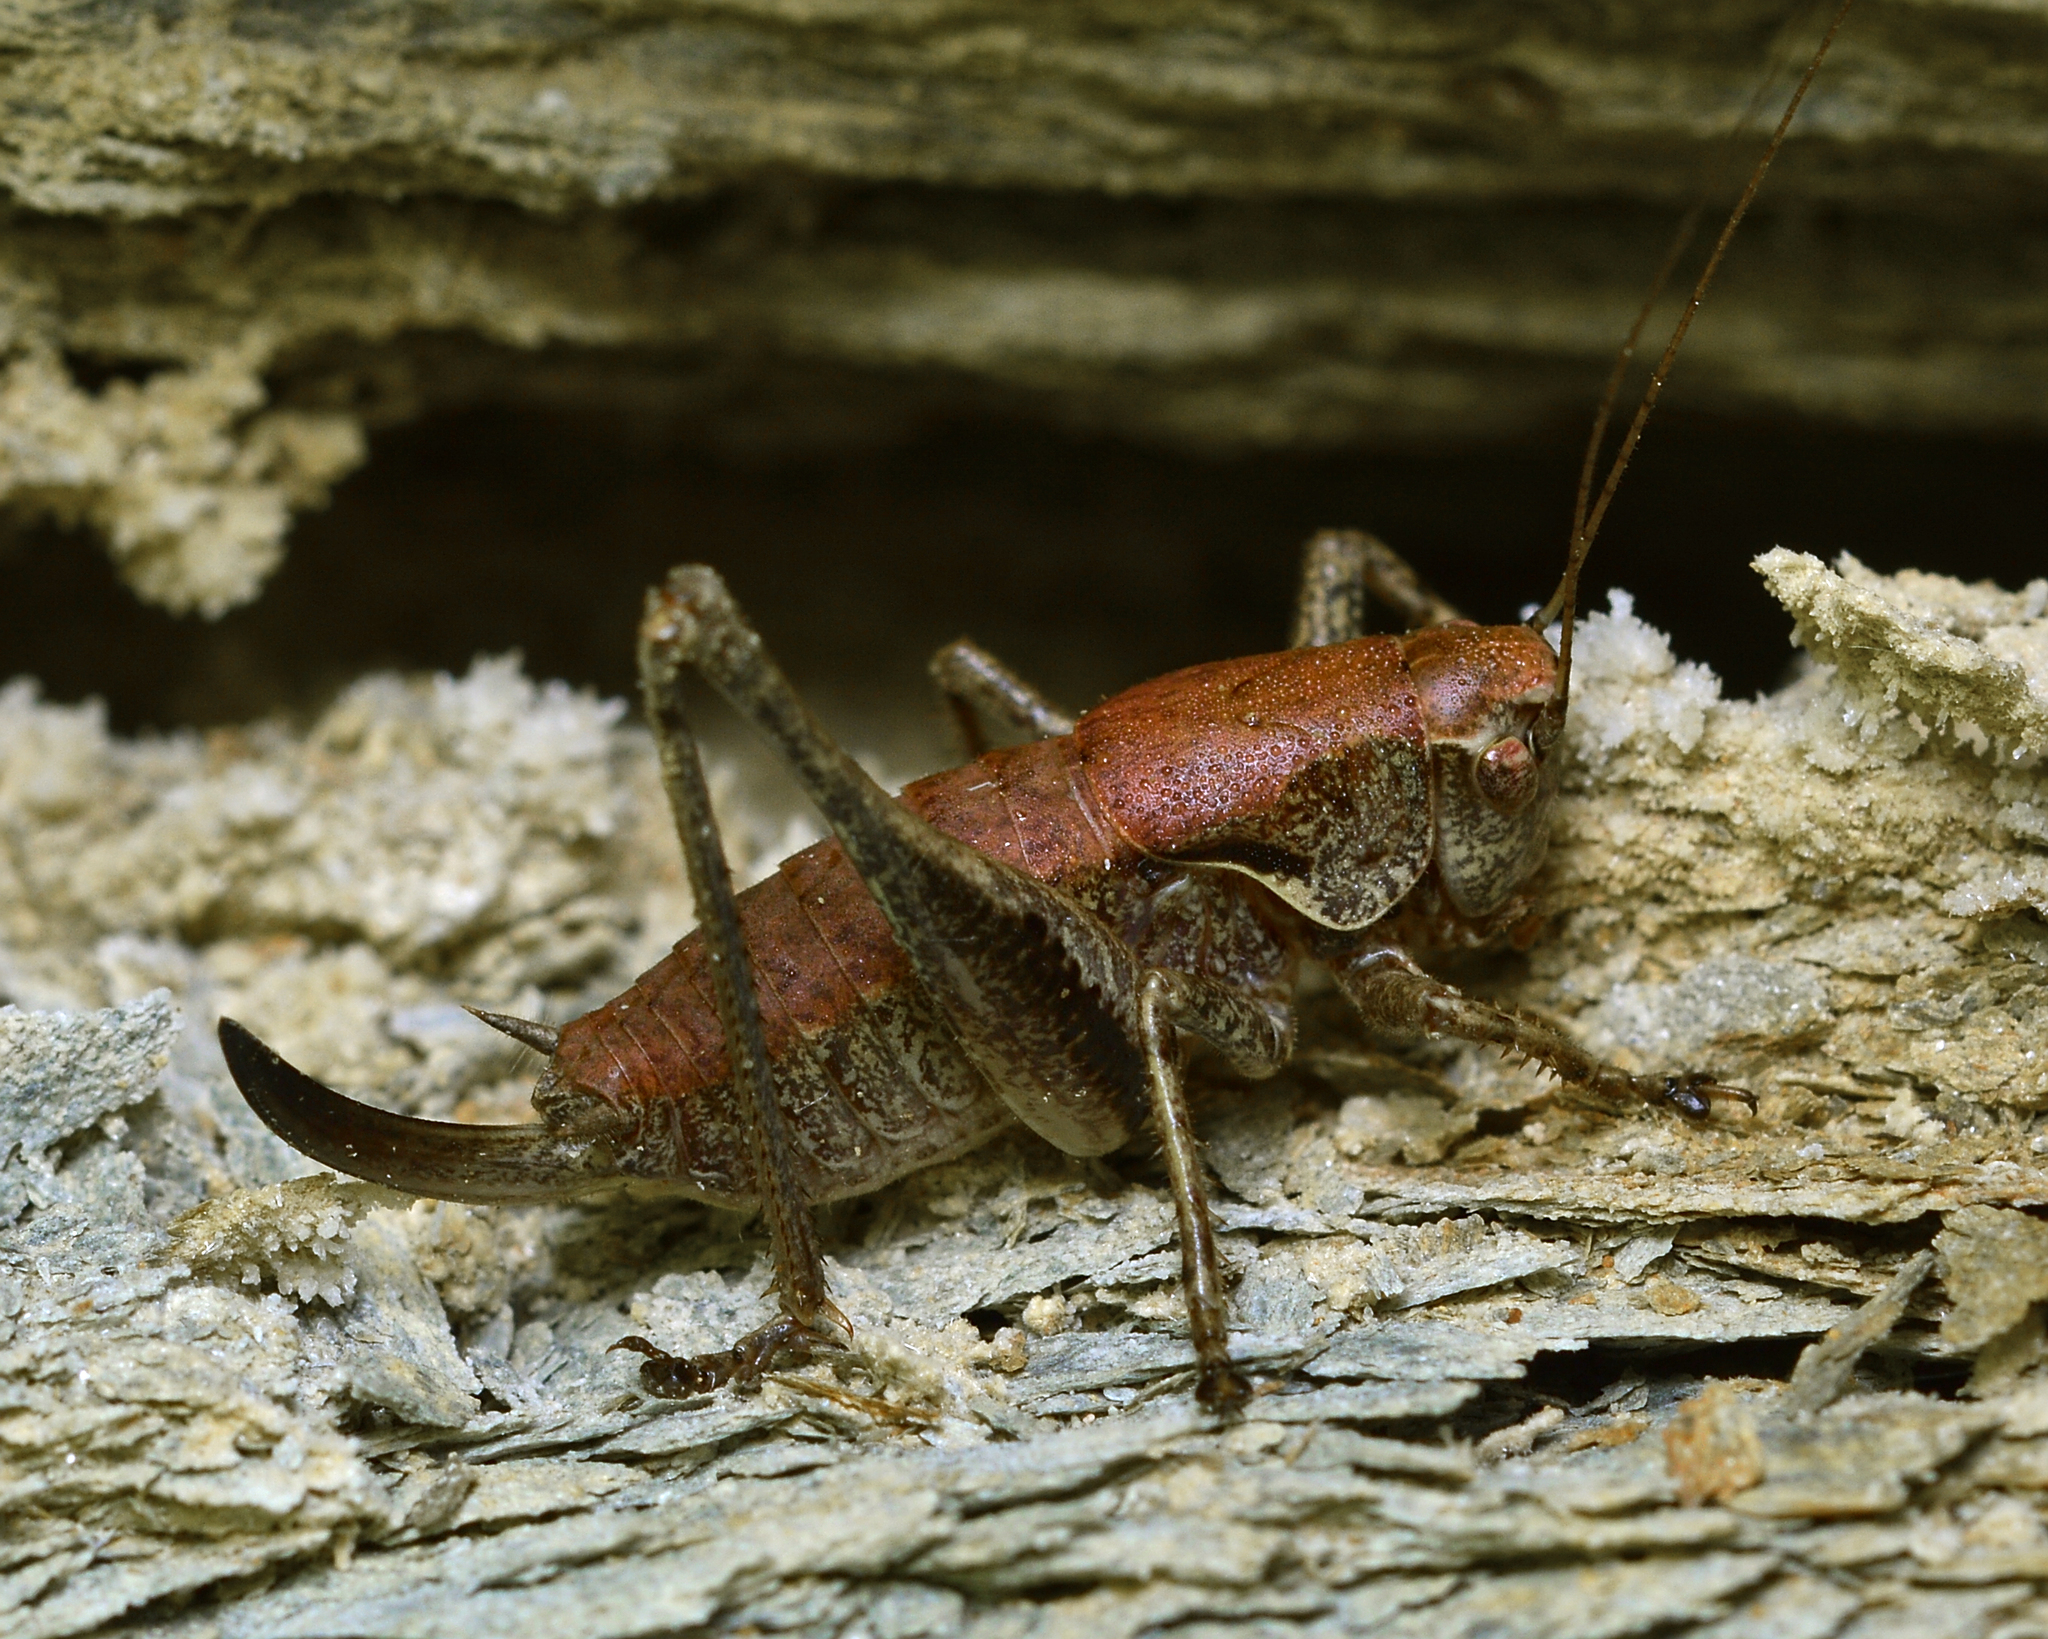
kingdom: Animalia
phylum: Arthropoda
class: Insecta
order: Orthoptera
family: Tettigoniidae
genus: Pholidoptera
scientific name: Pholidoptera griseoaptera
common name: Dark bush-cricket
